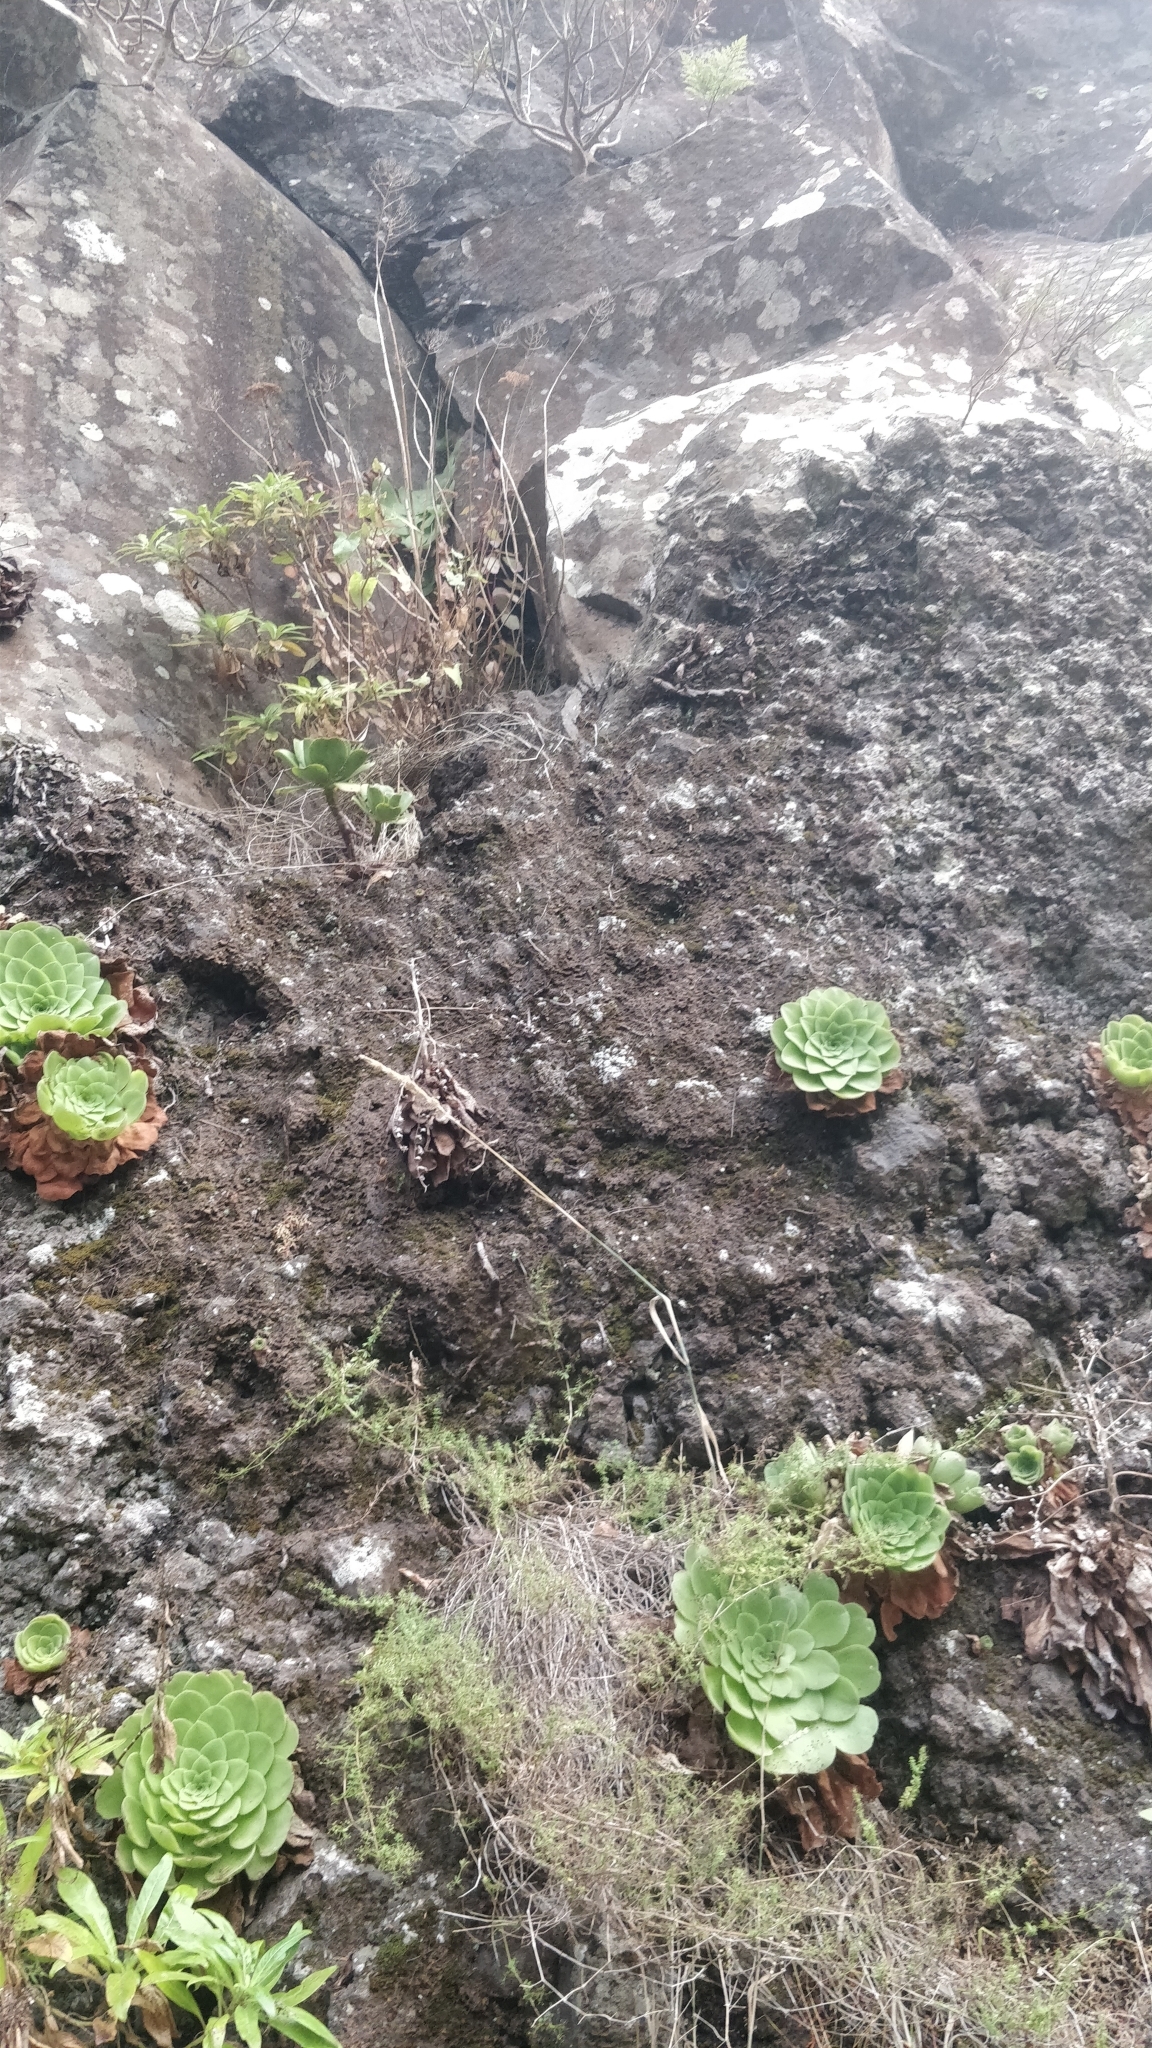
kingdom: Plantae
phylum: Tracheophyta
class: Magnoliopsida
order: Saxifragales
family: Crassulaceae
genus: Aeonium
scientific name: Aeonium glandulosum
